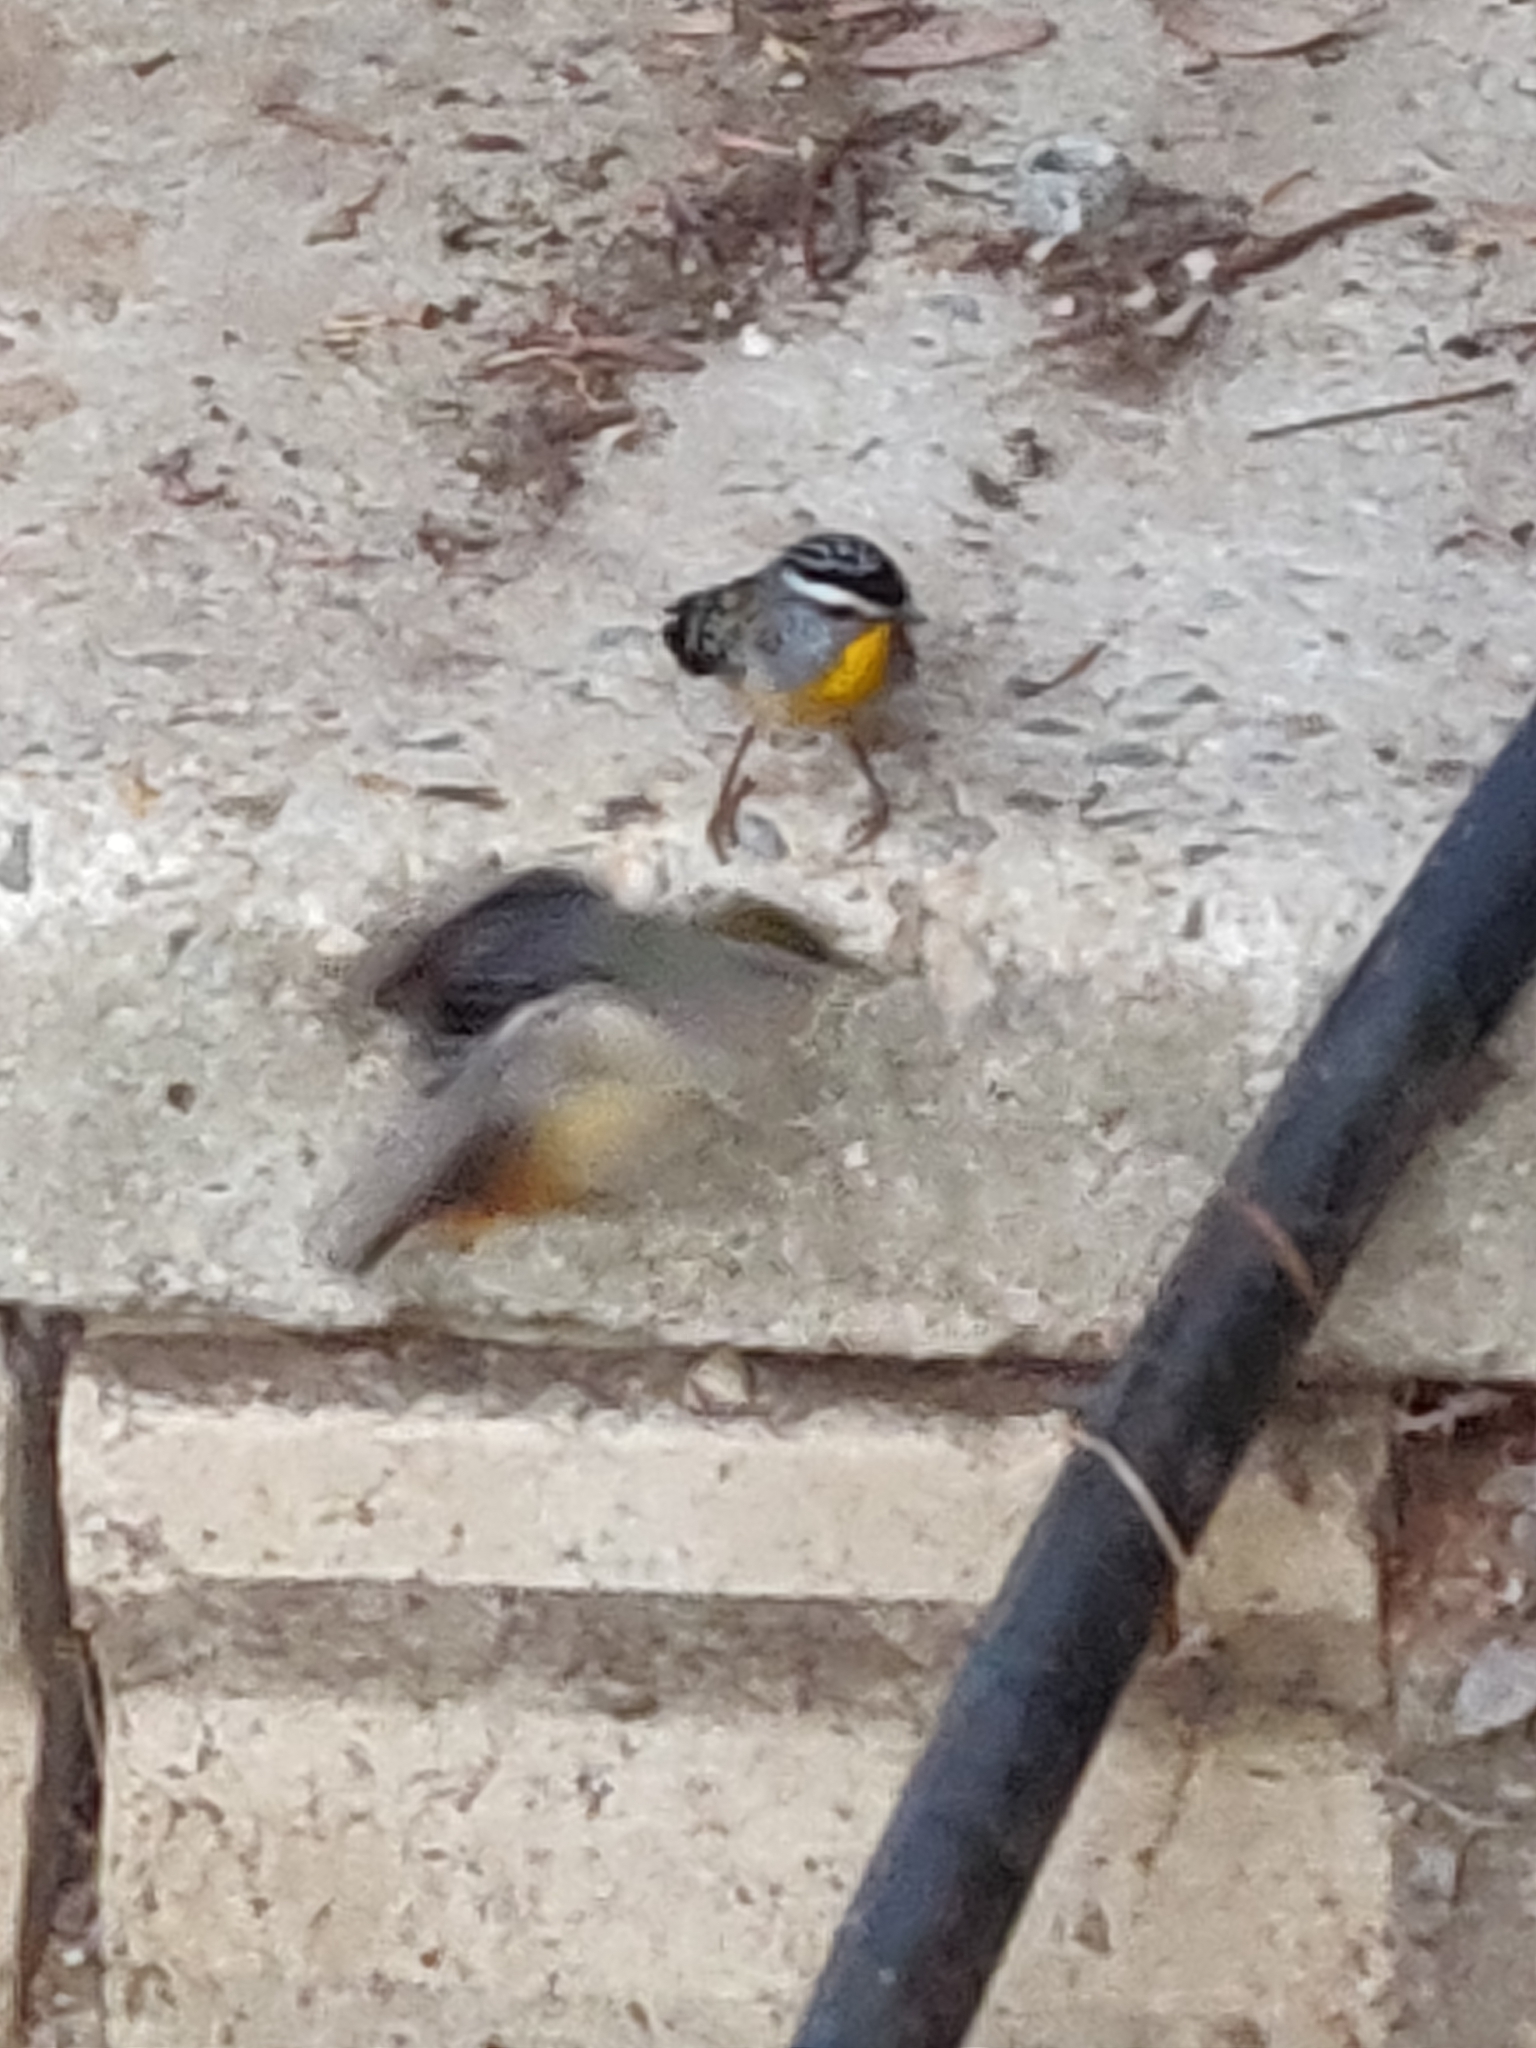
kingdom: Animalia
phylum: Chordata
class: Aves
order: Passeriformes
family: Pardalotidae
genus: Pardalotus
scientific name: Pardalotus punctatus
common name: Spotted pardalote
